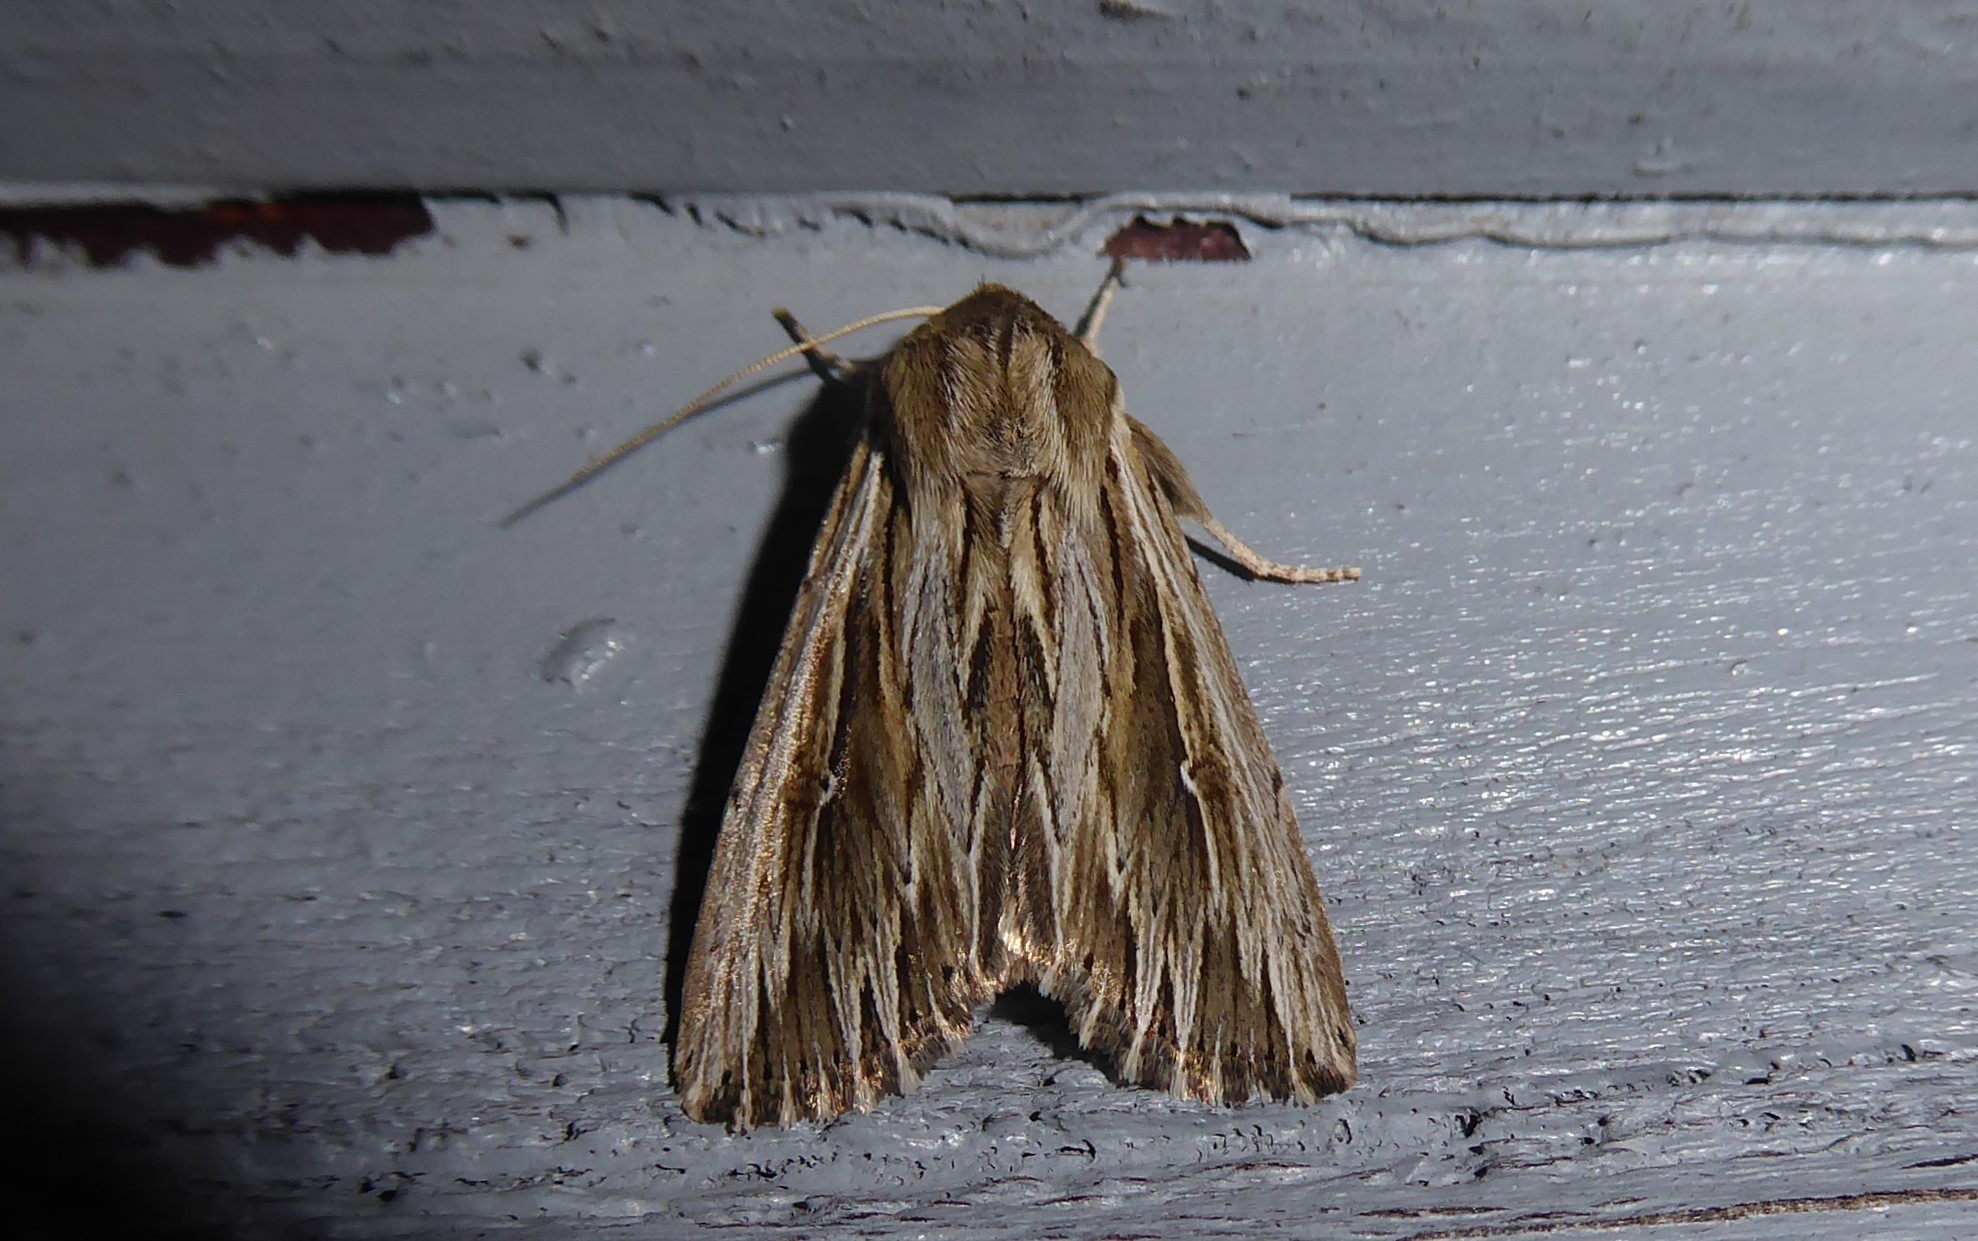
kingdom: Animalia
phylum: Arthropoda
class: Insecta
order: Lepidoptera
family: Noctuidae
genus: Persectania
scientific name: Persectania aversa
